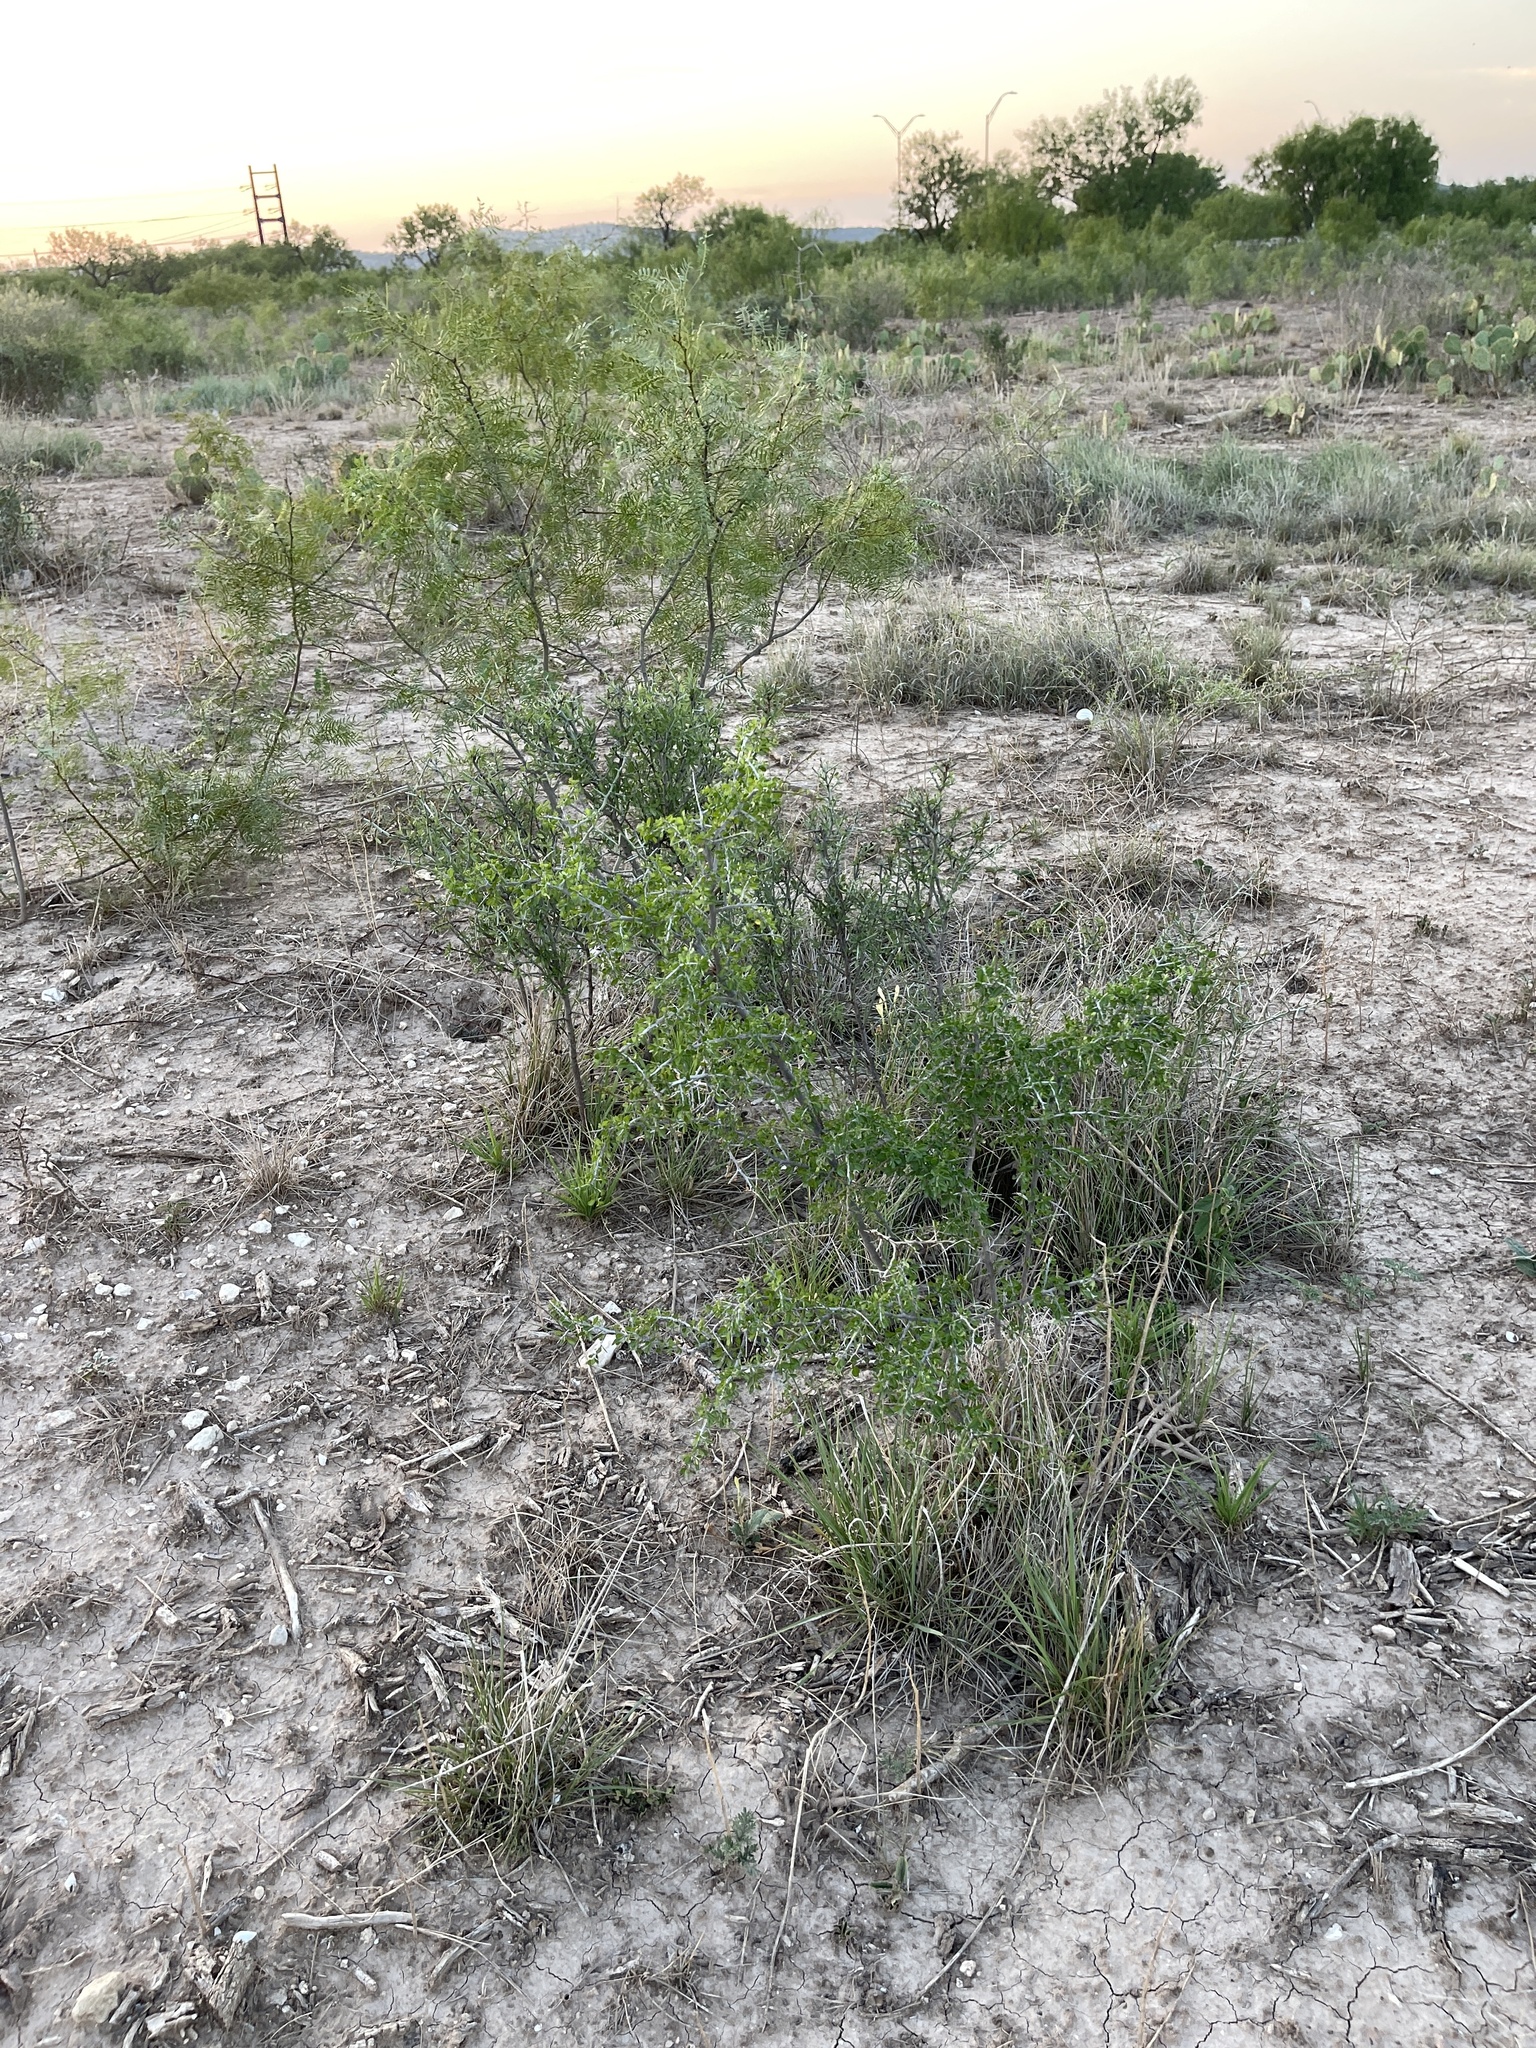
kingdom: Plantae
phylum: Tracheophyta
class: Magnoliopsida
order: Rosales
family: Rhamnaceae
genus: Condalia
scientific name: Condalia viridis
